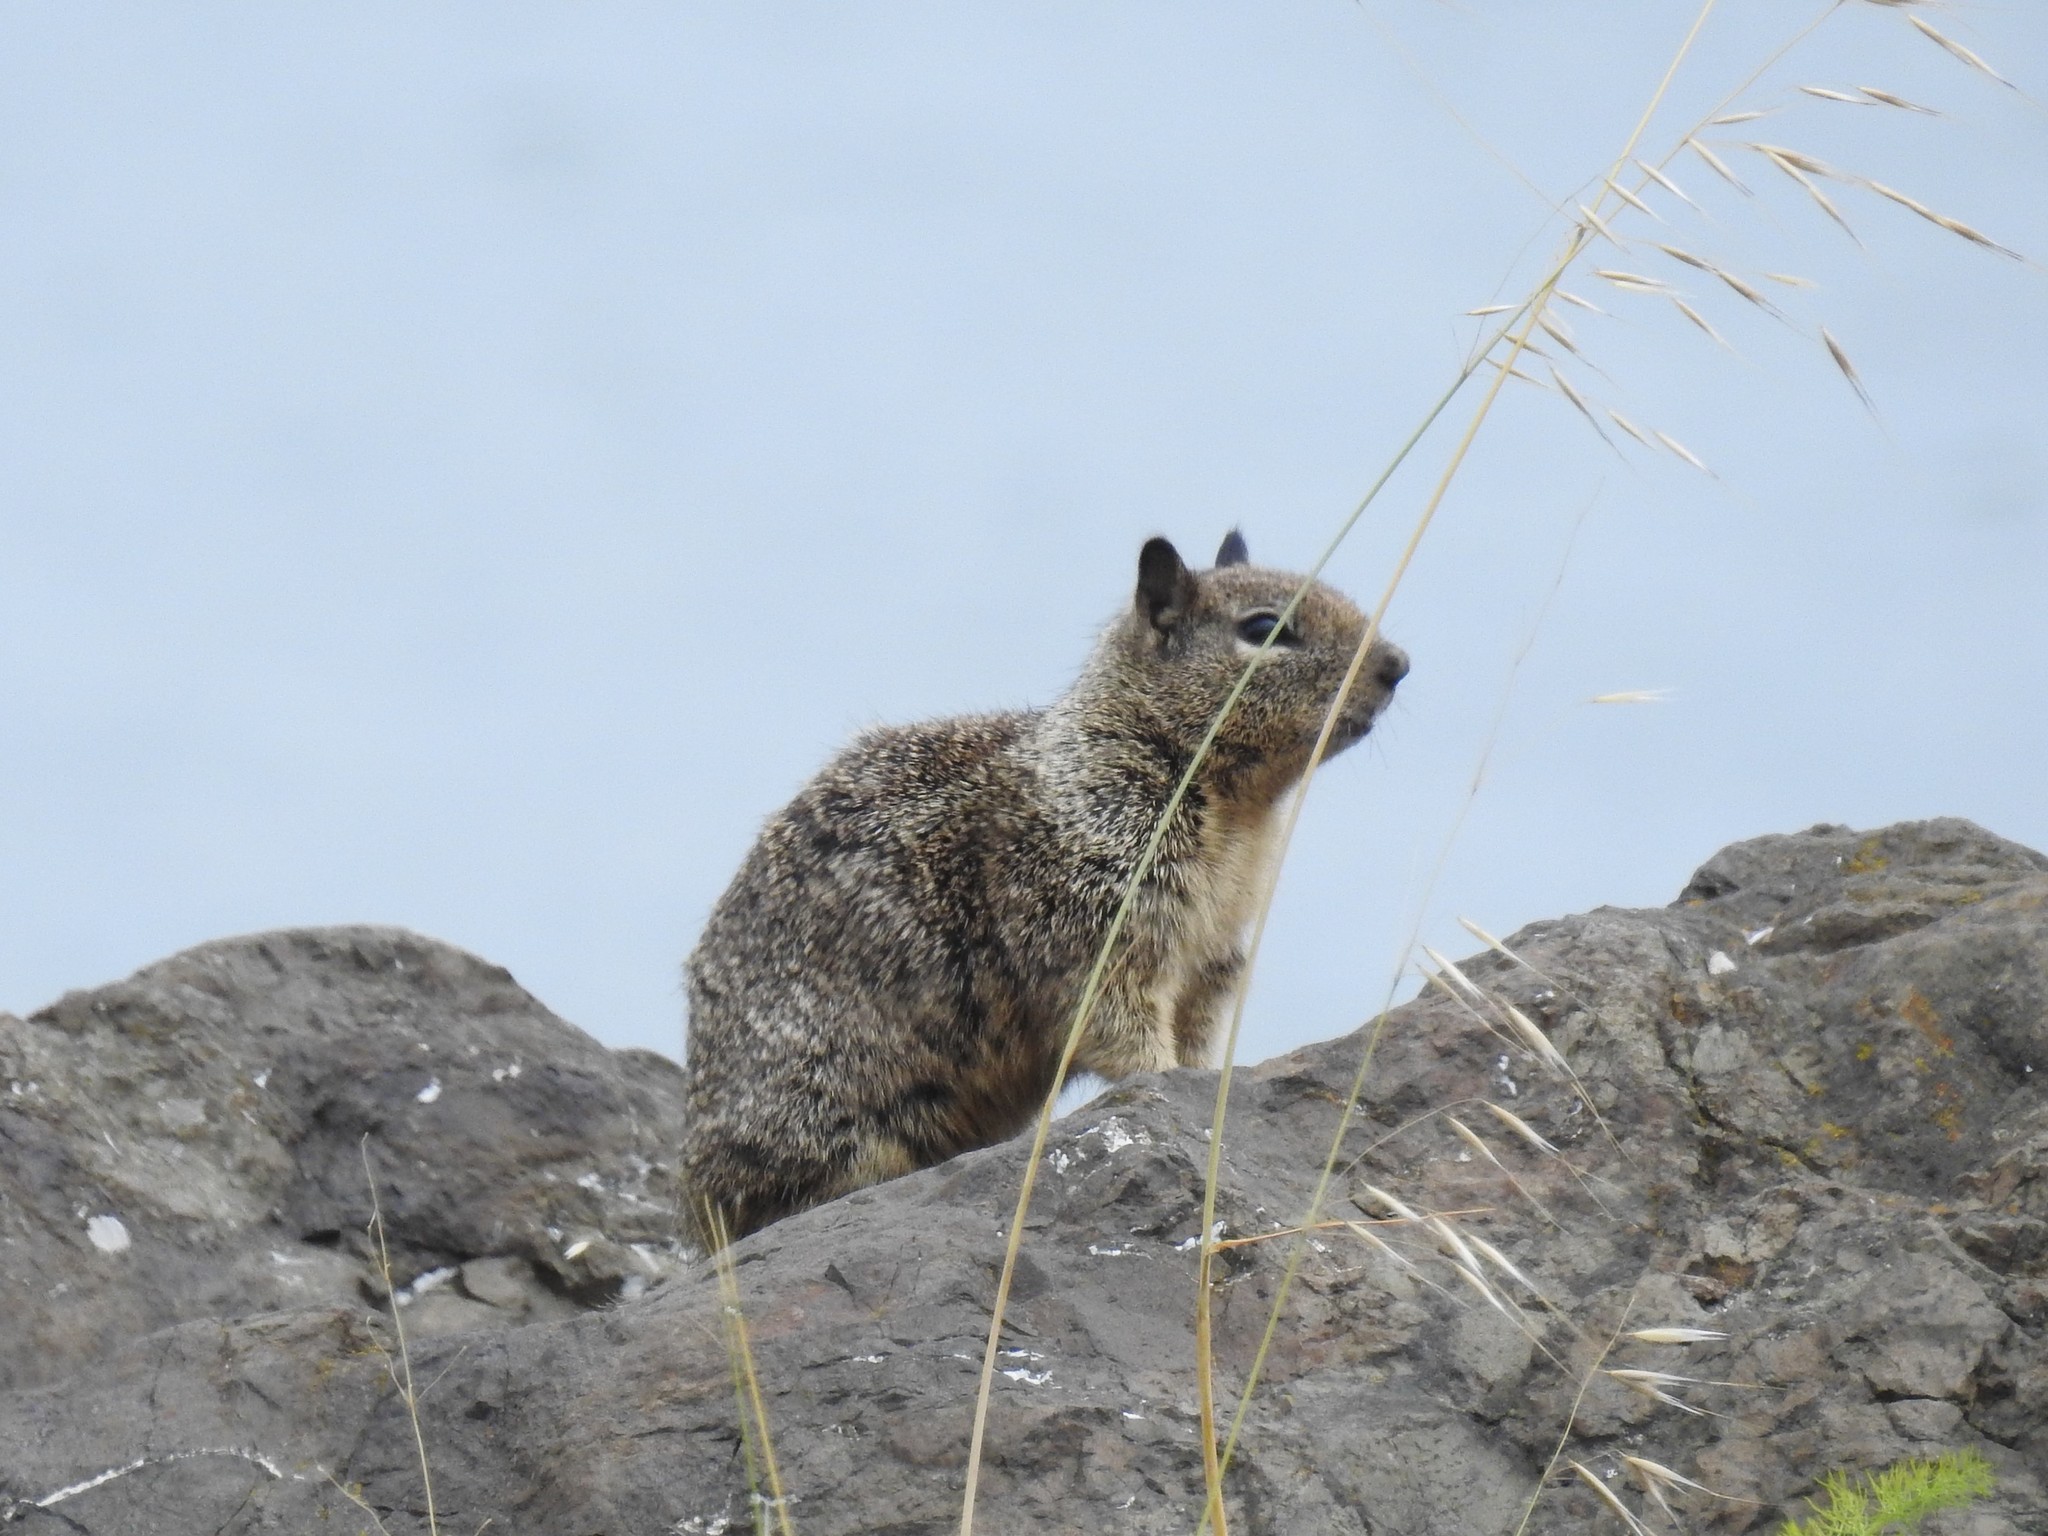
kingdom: Animalia
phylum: Chordata
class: Mammalia
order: Rodentia
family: Sciuridae
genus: Otospermophilus
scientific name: Otospermophilus beecheyi
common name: California ground squirrel
